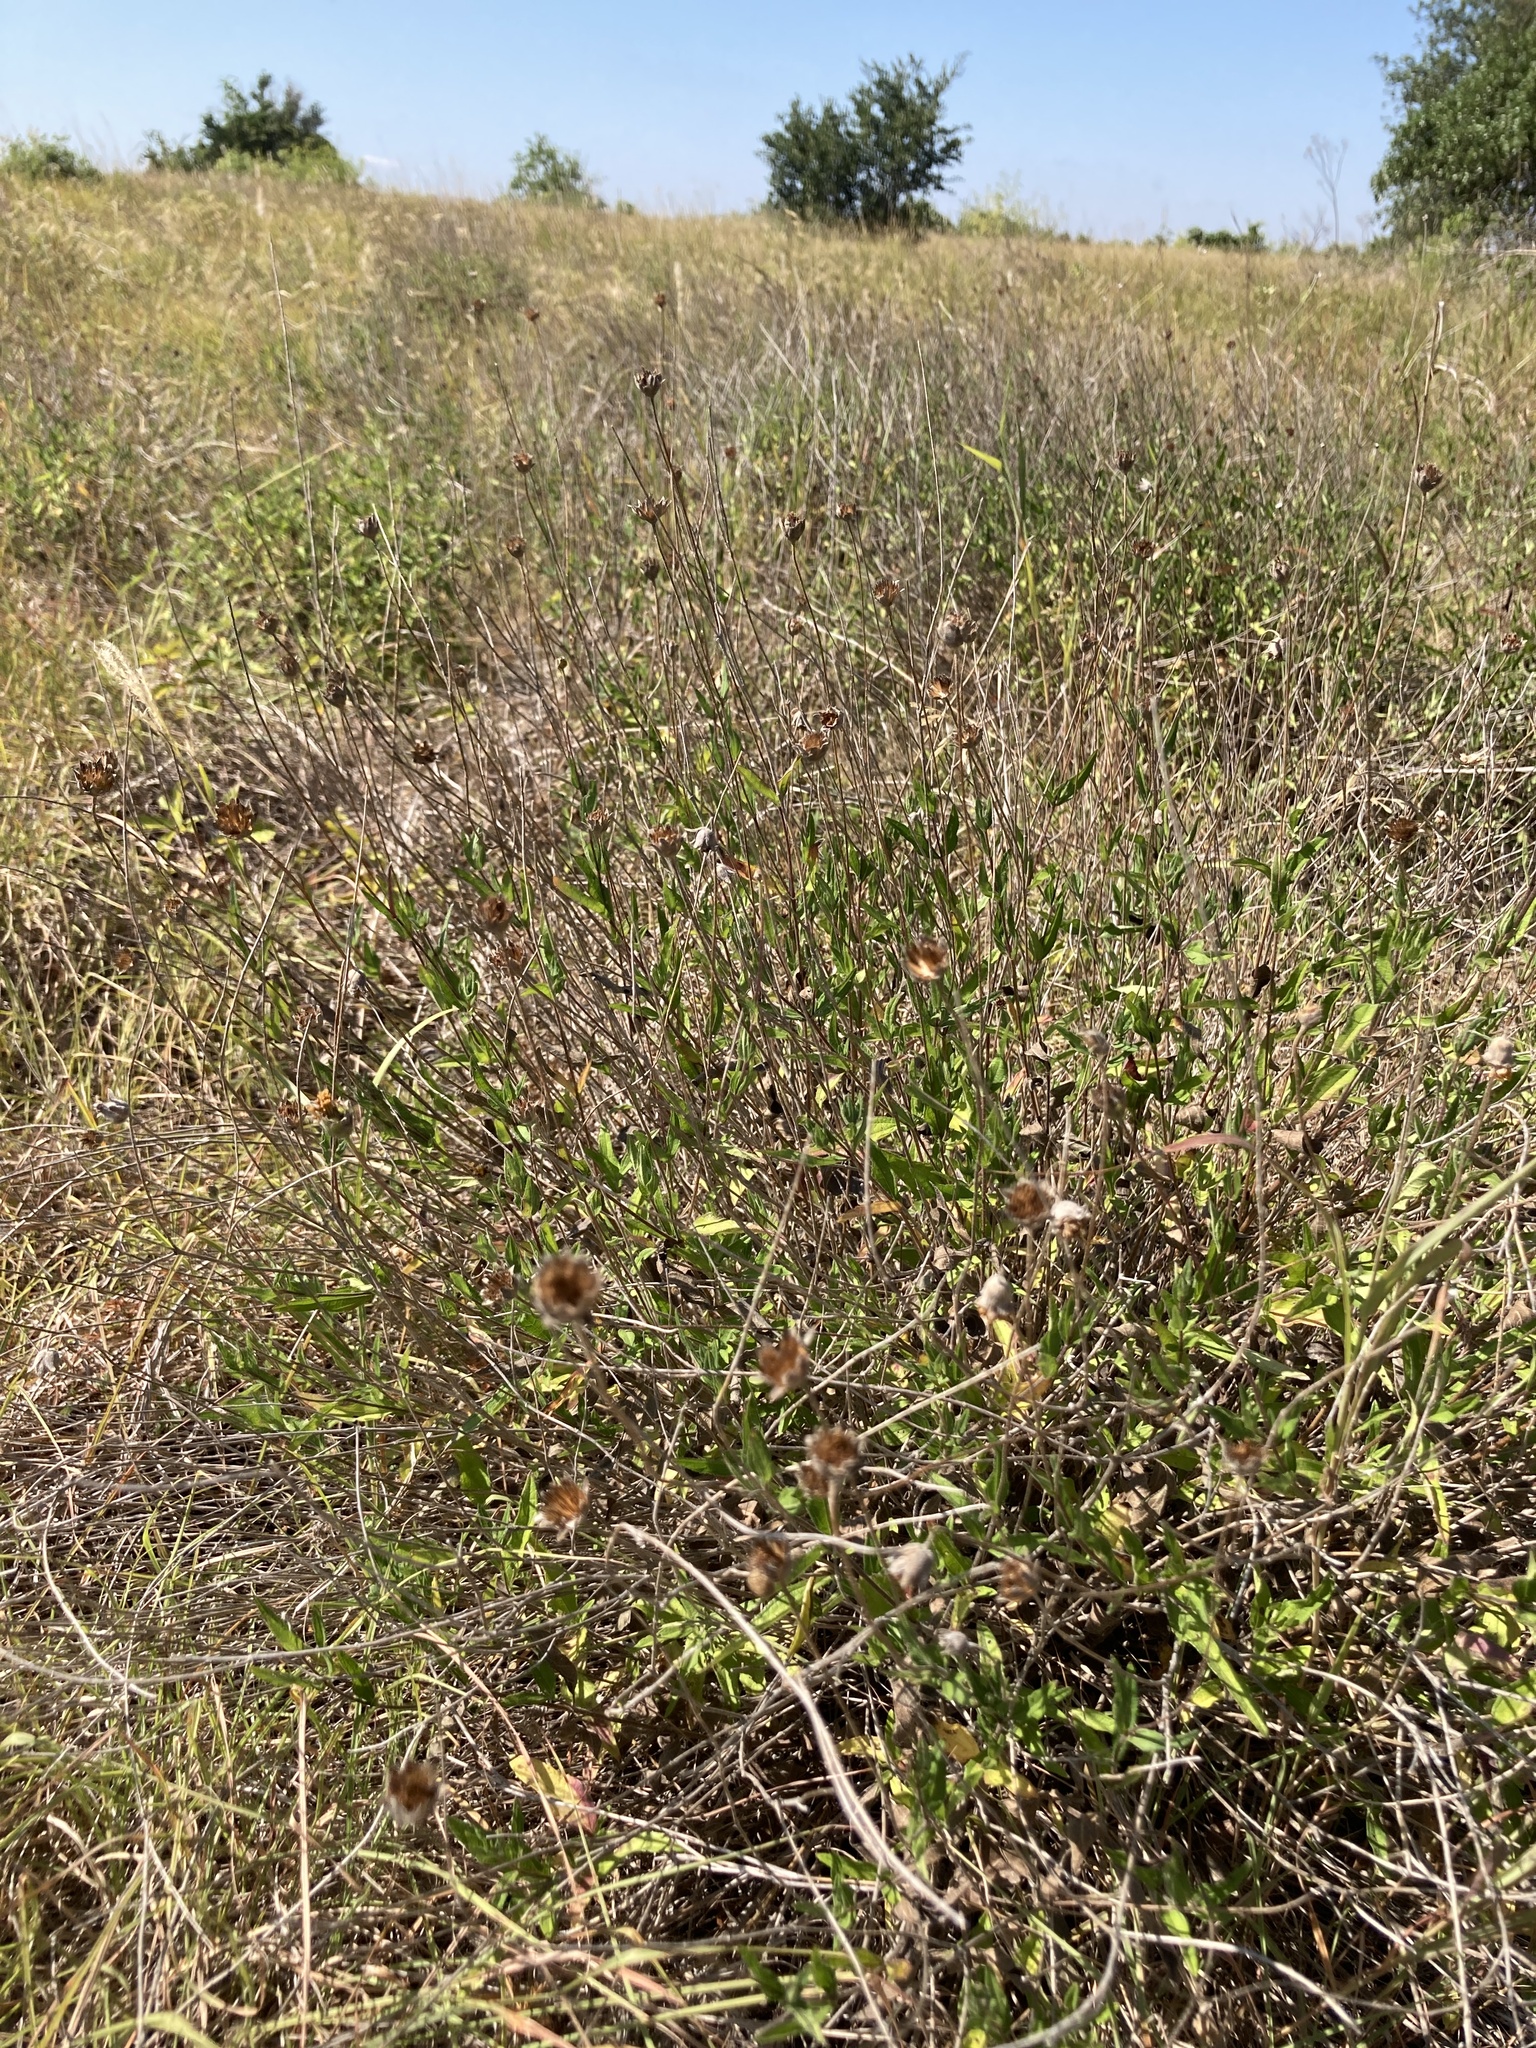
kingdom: Plantae
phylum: Tracheophyta
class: Magnoliopsida
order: Asterales
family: Asteraceae
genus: Wedelia
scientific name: Wedelia acapulcensis
